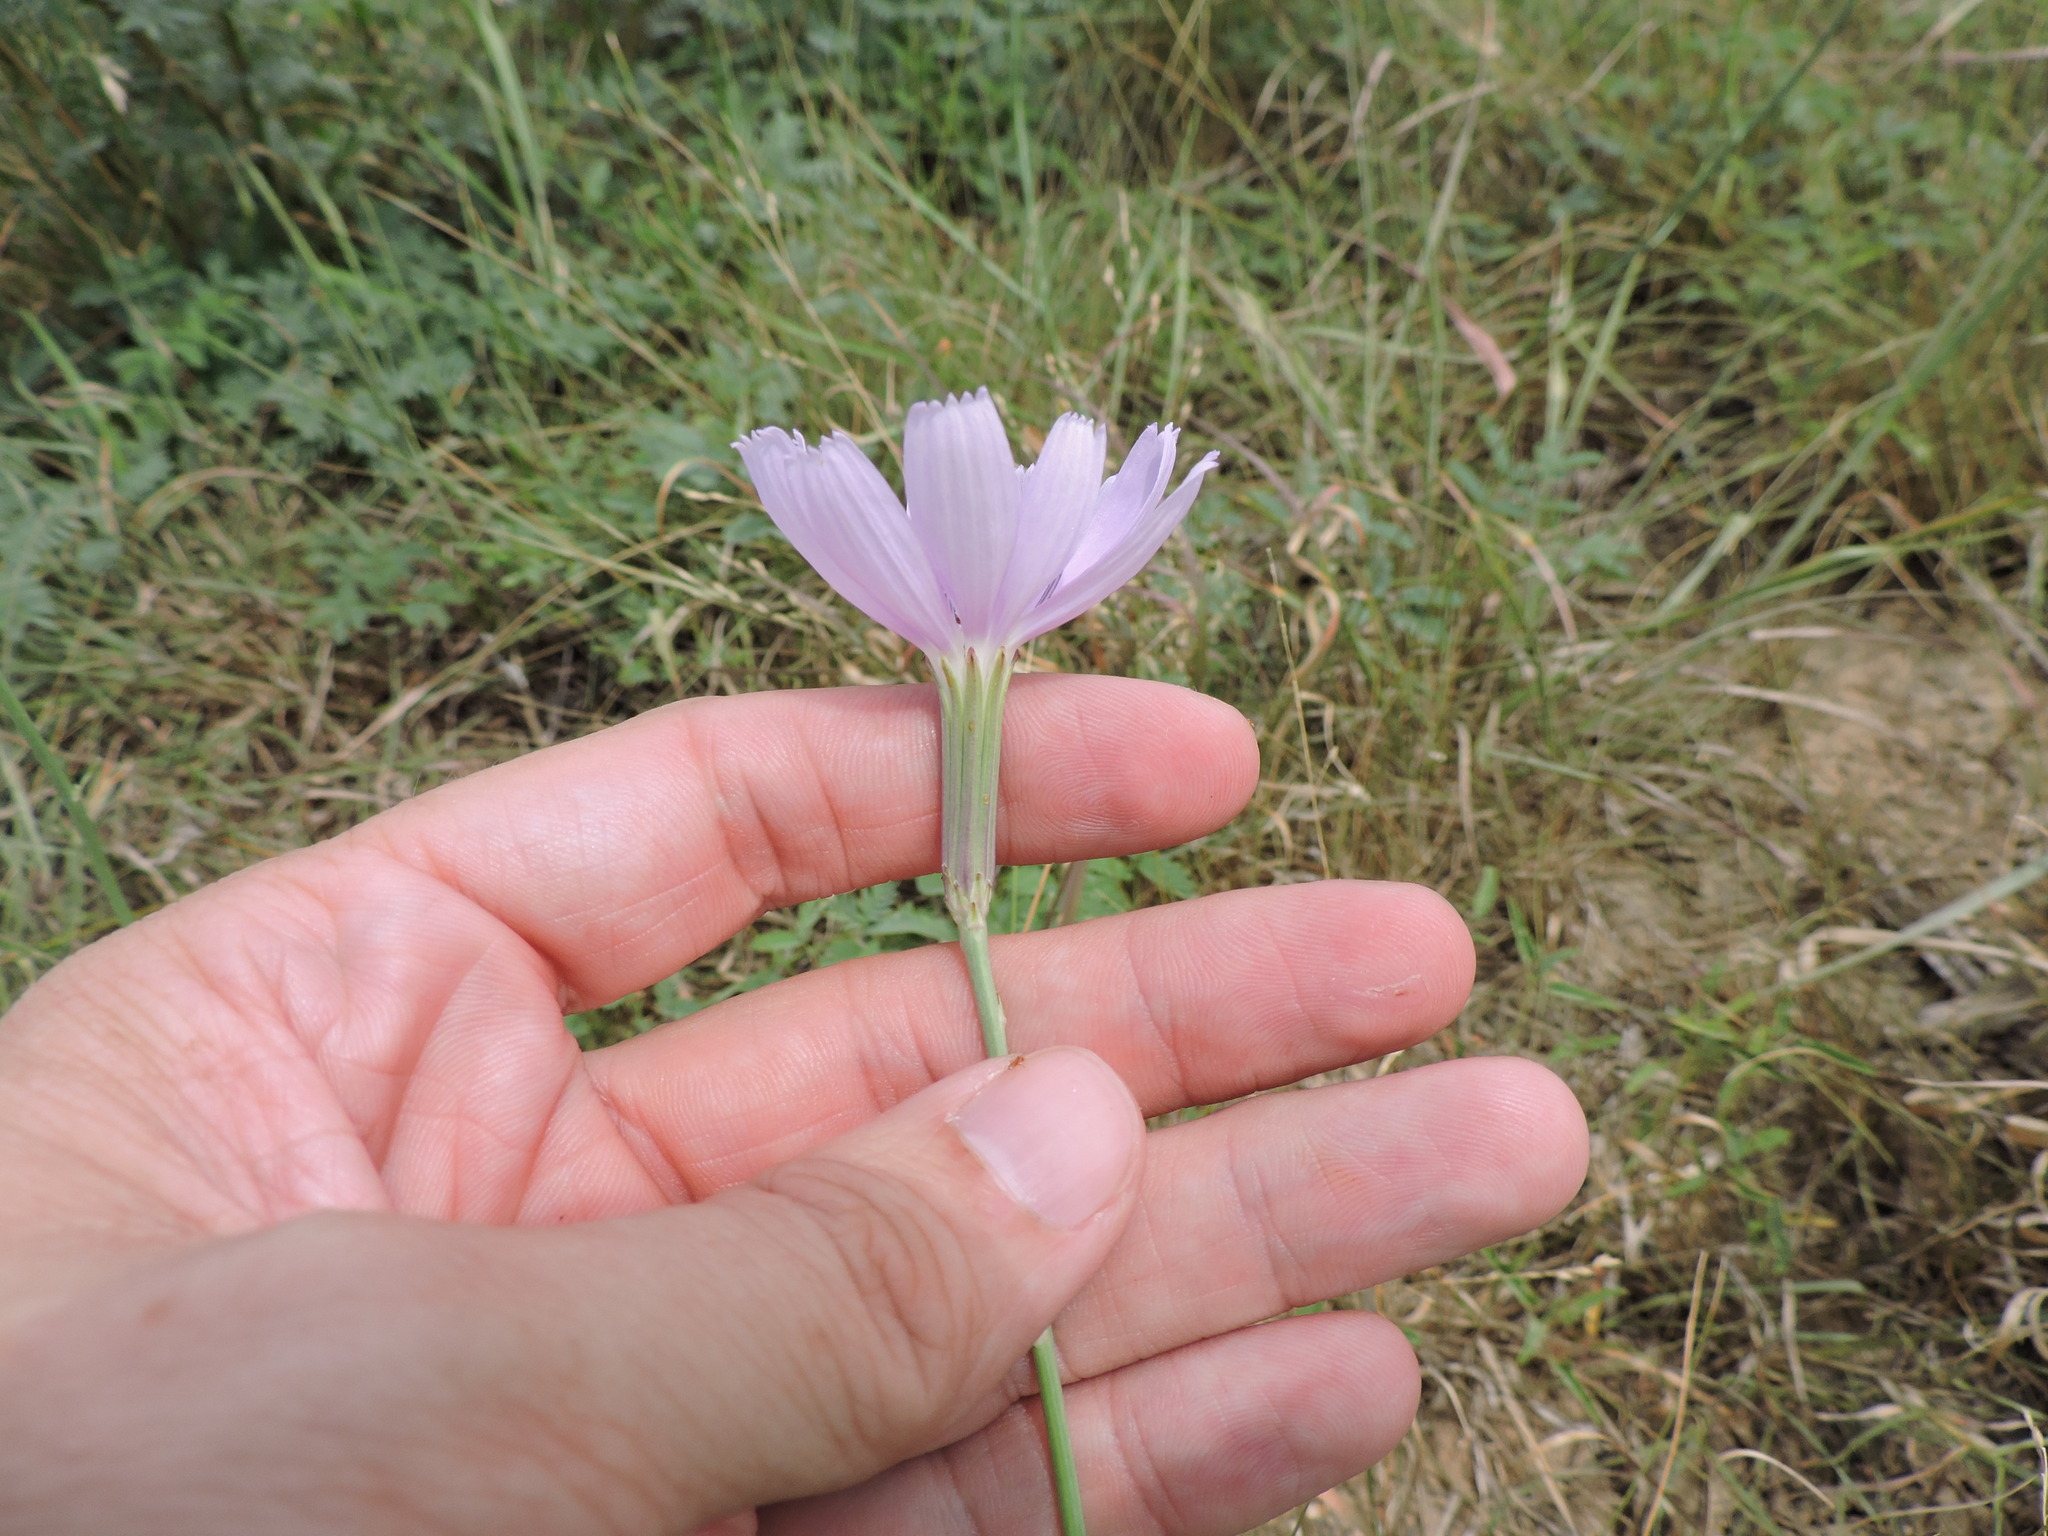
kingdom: Plantae
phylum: Tracheophyta
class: Magnoliopsida
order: Asterales
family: Asteraceae
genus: Lygodesmia
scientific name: Lygodesmia texana
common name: Texas skeleton-plant
